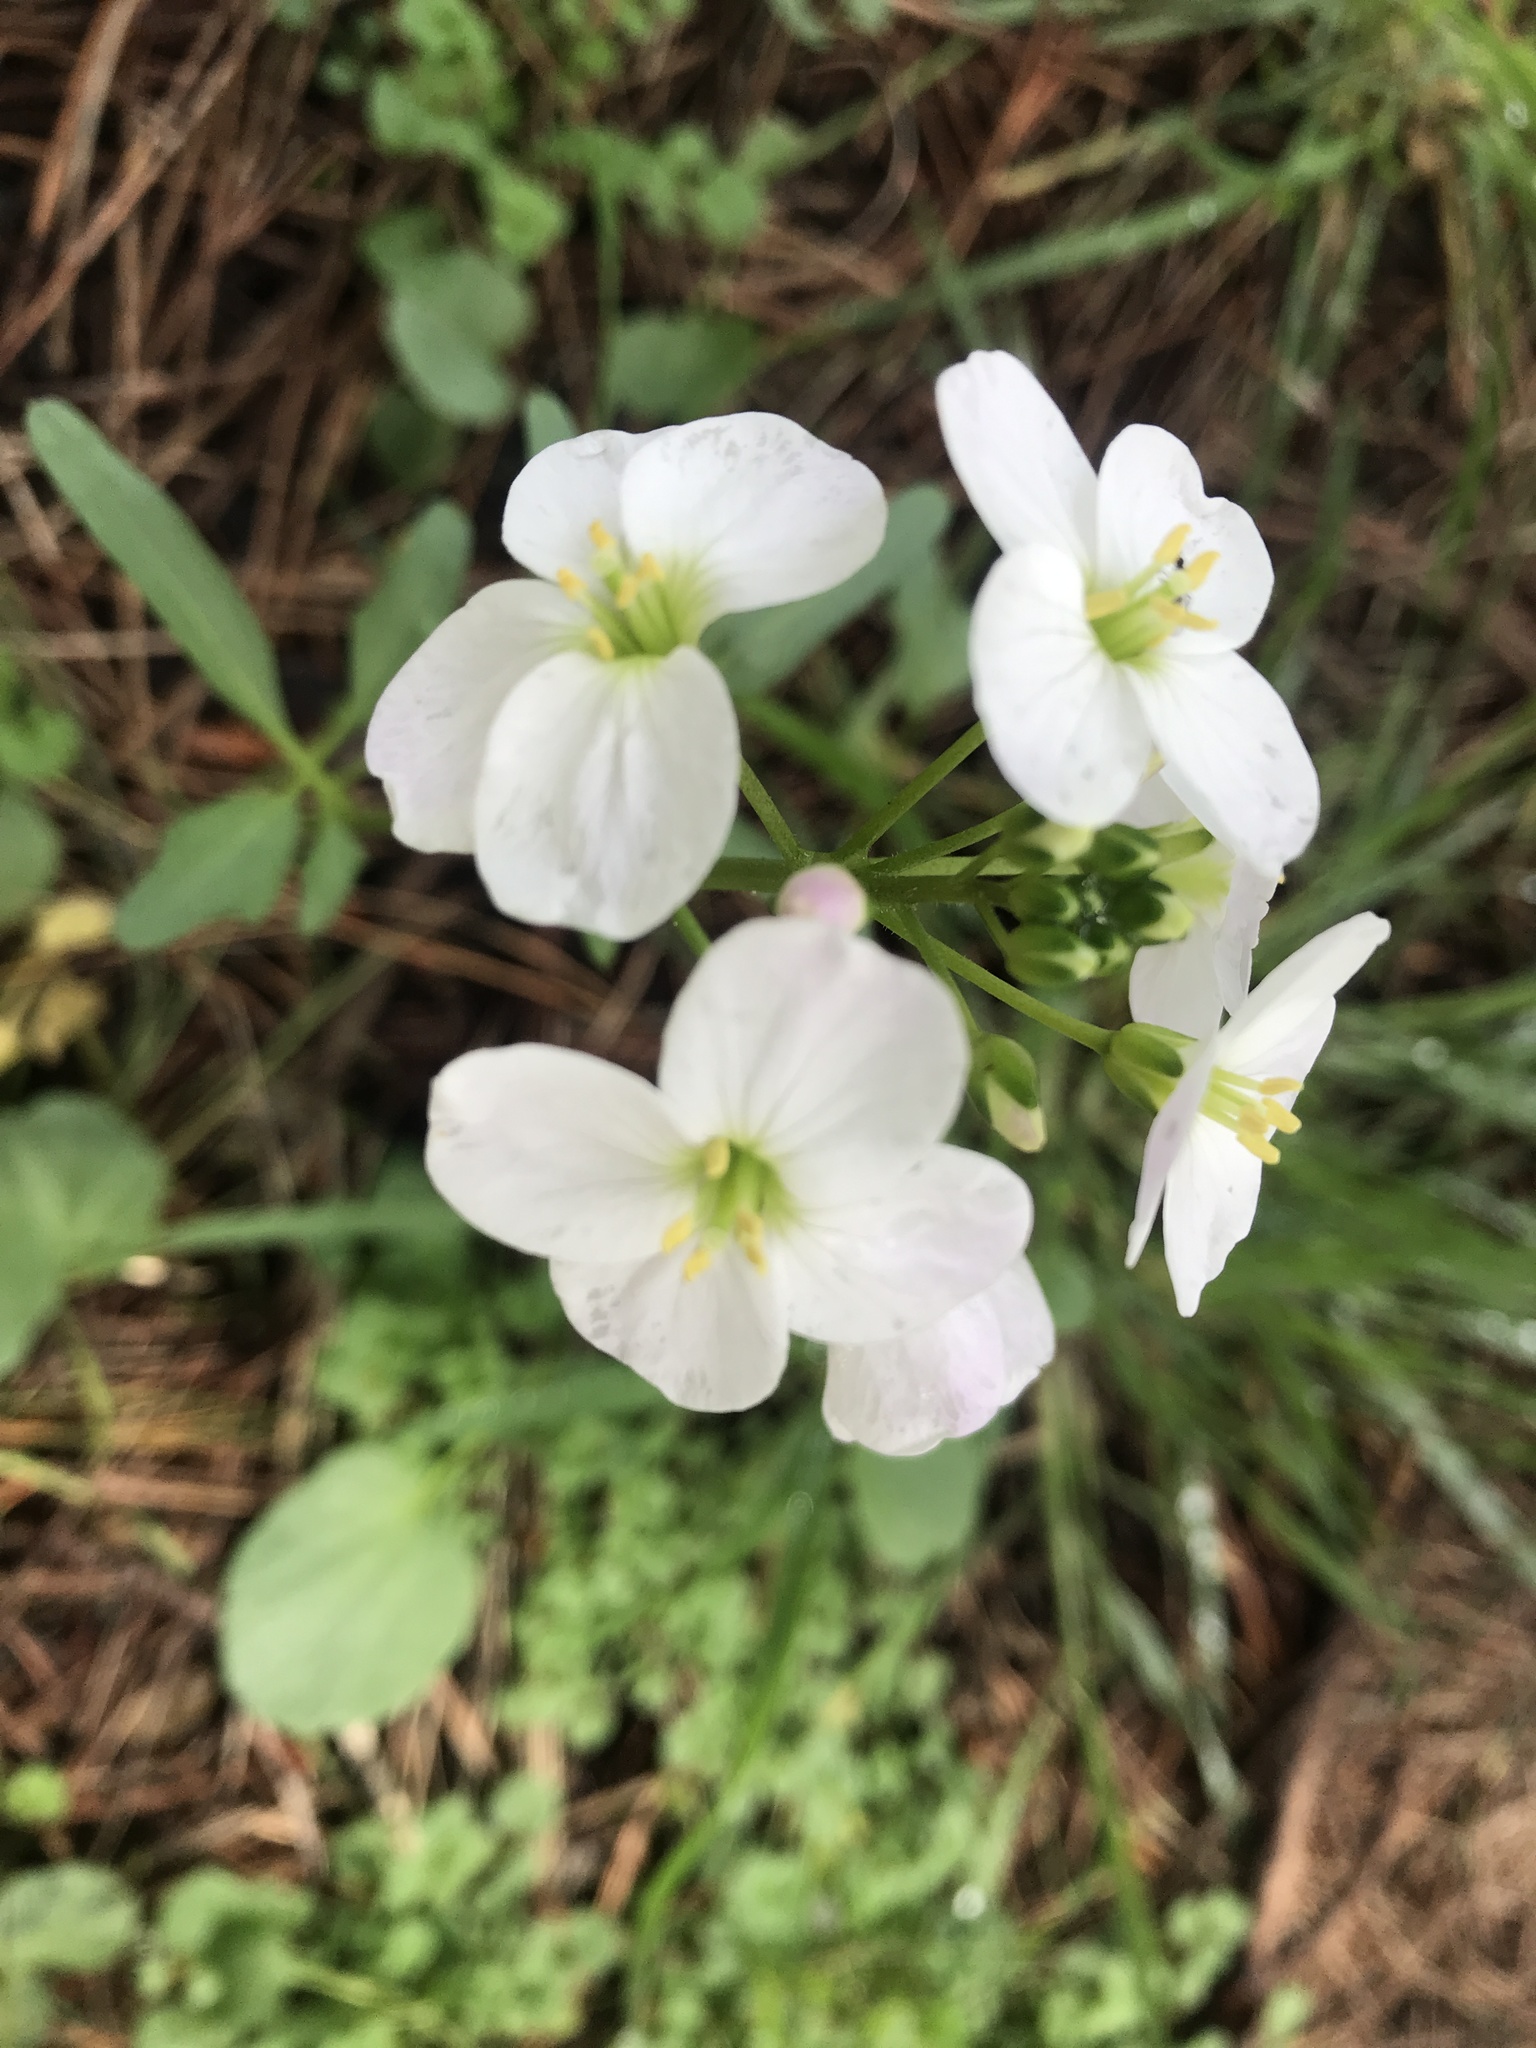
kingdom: Plantae
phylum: Tracheophyta
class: Magnoliopsida
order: Brassicales
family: Brassicaceae
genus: Cardamine
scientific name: Cardamine californica
